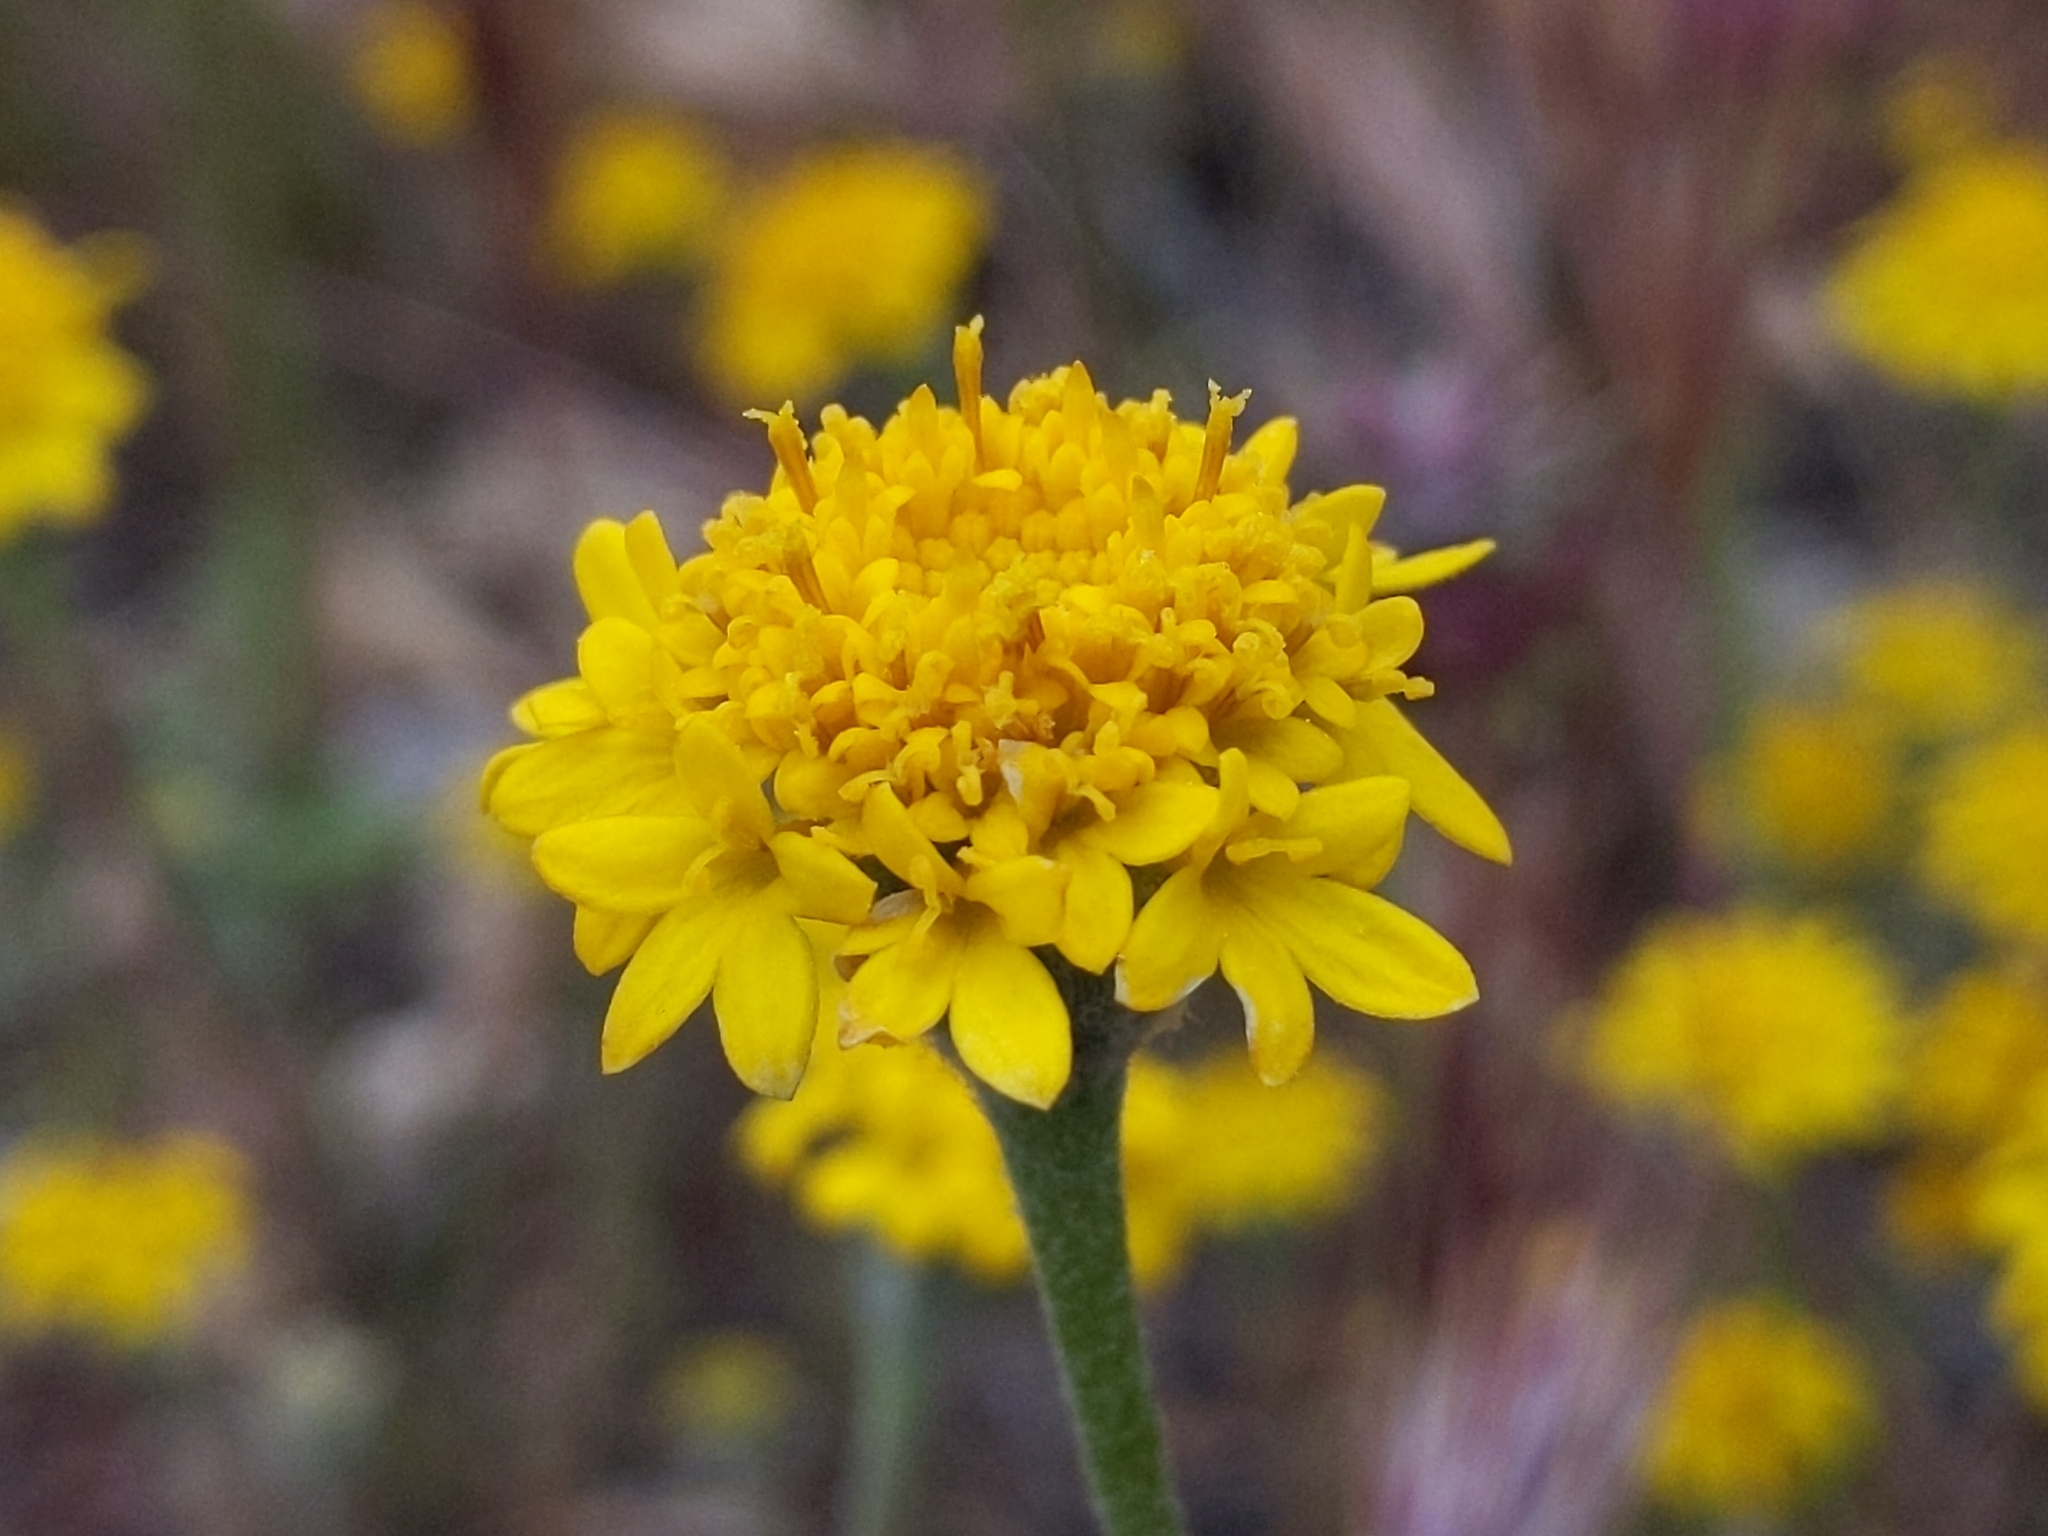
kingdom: Plantae
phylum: Tracheophyta
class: Magnoliopsida
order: Asterales
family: Asteraceae
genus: Chaenactis
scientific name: Chaenactis glabriuscula
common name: Yellow pincushion
